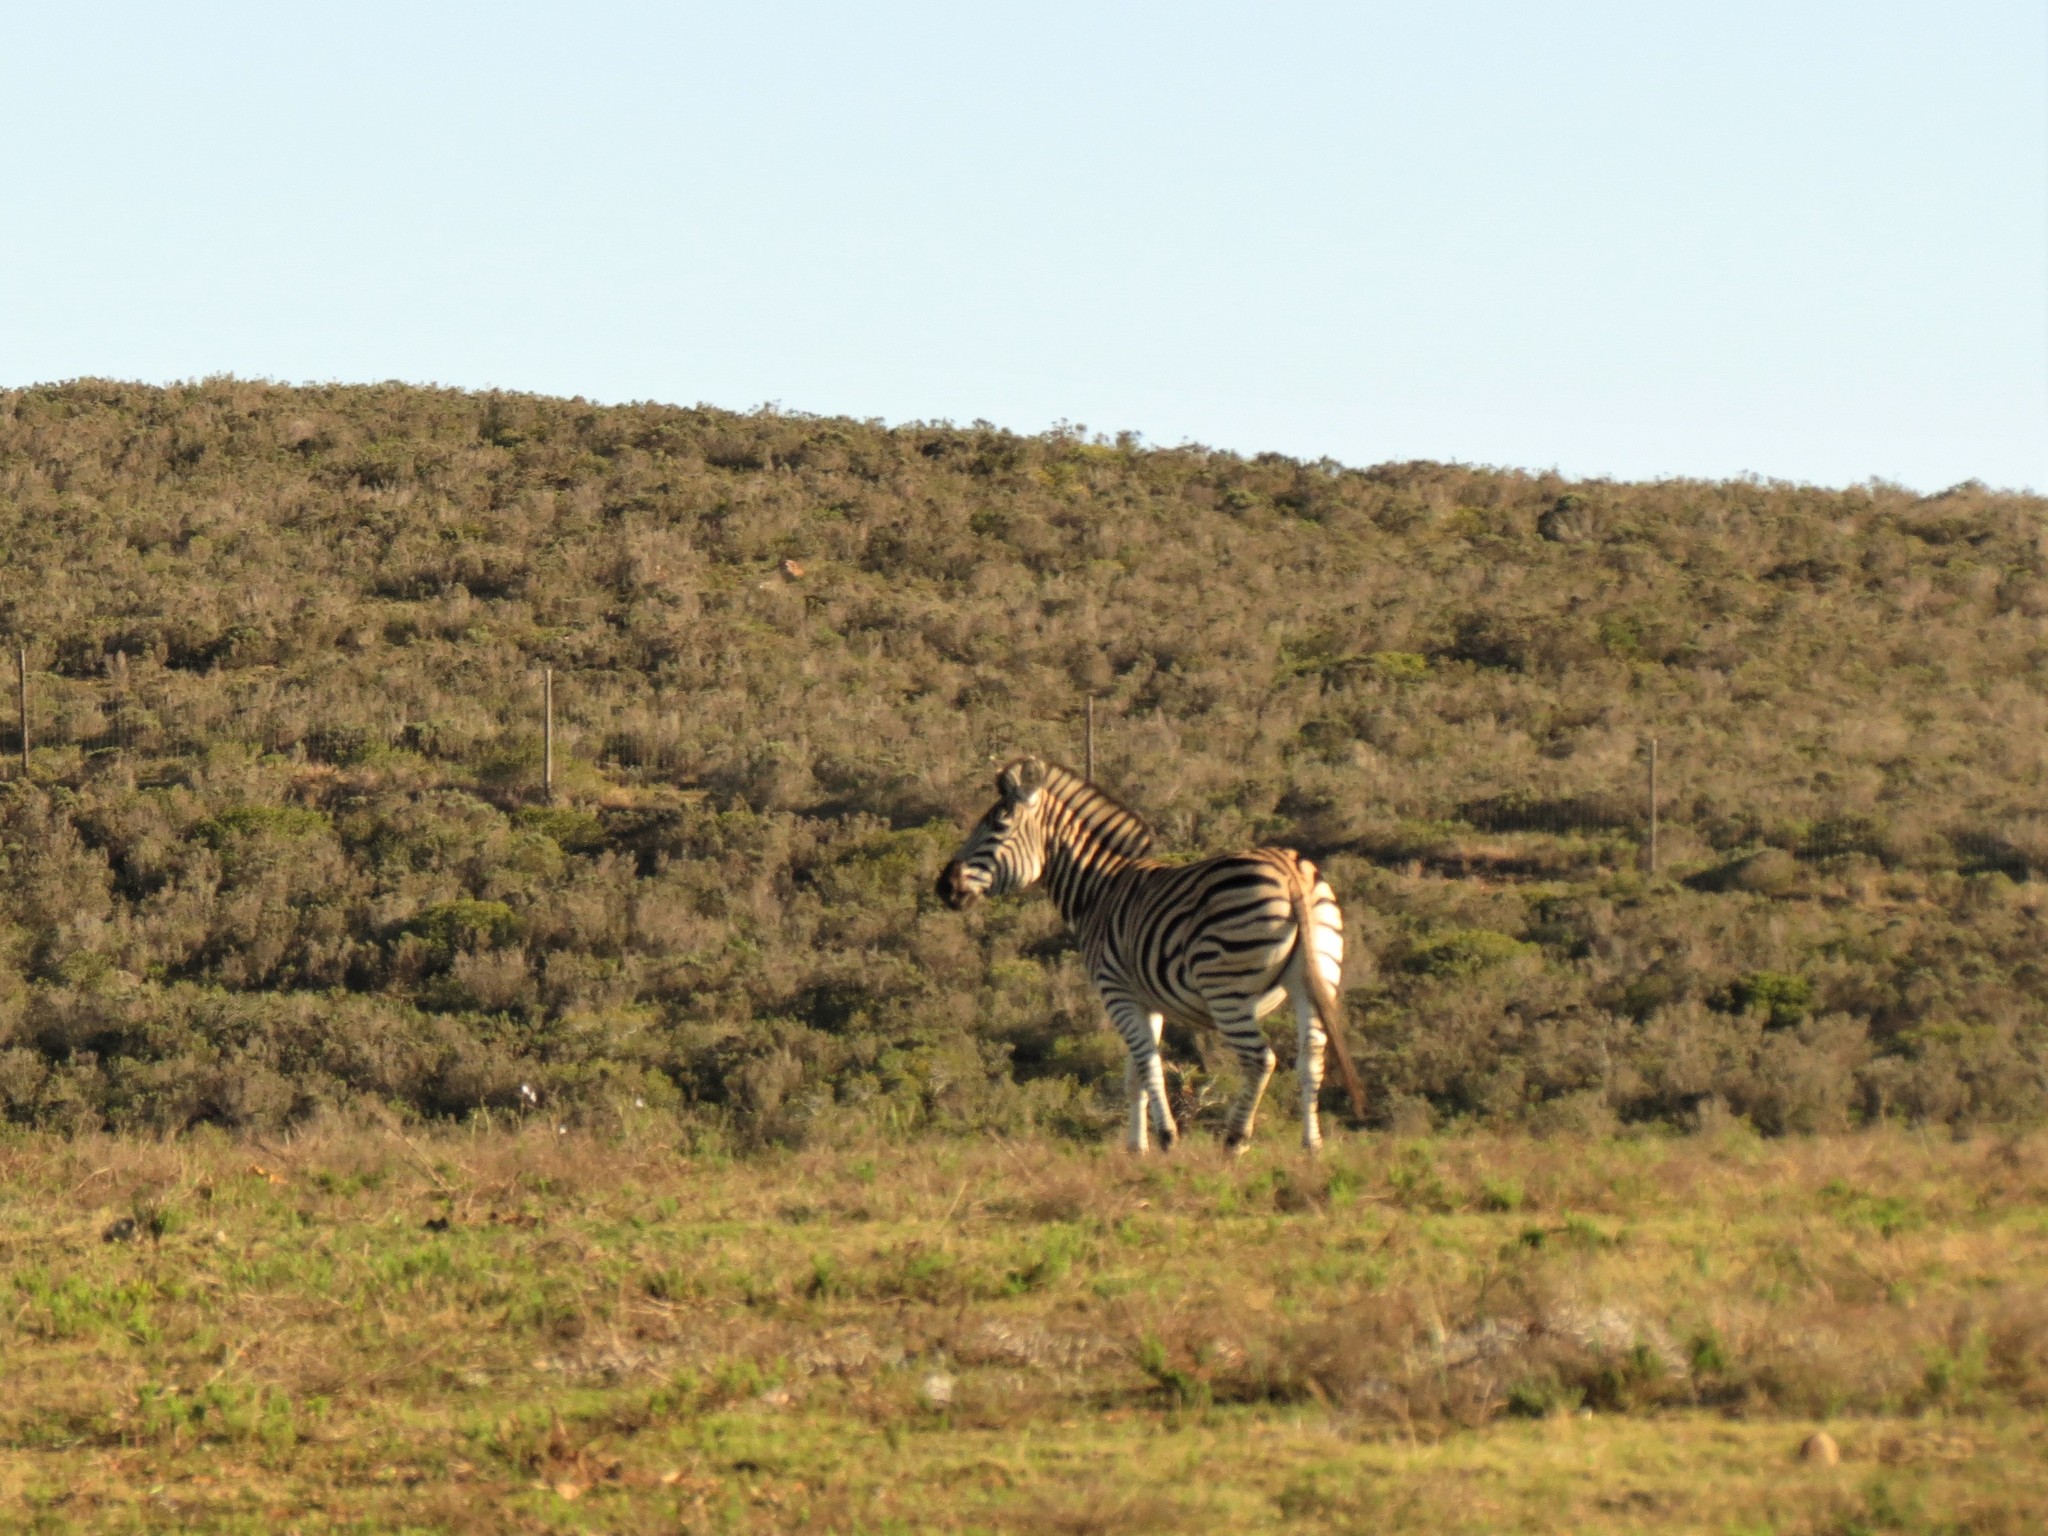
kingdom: Animalia
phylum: Chordata
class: Mammalia
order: Perissodactyla
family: Equidae
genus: Equus
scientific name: Equus quagga
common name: Plains zebra
